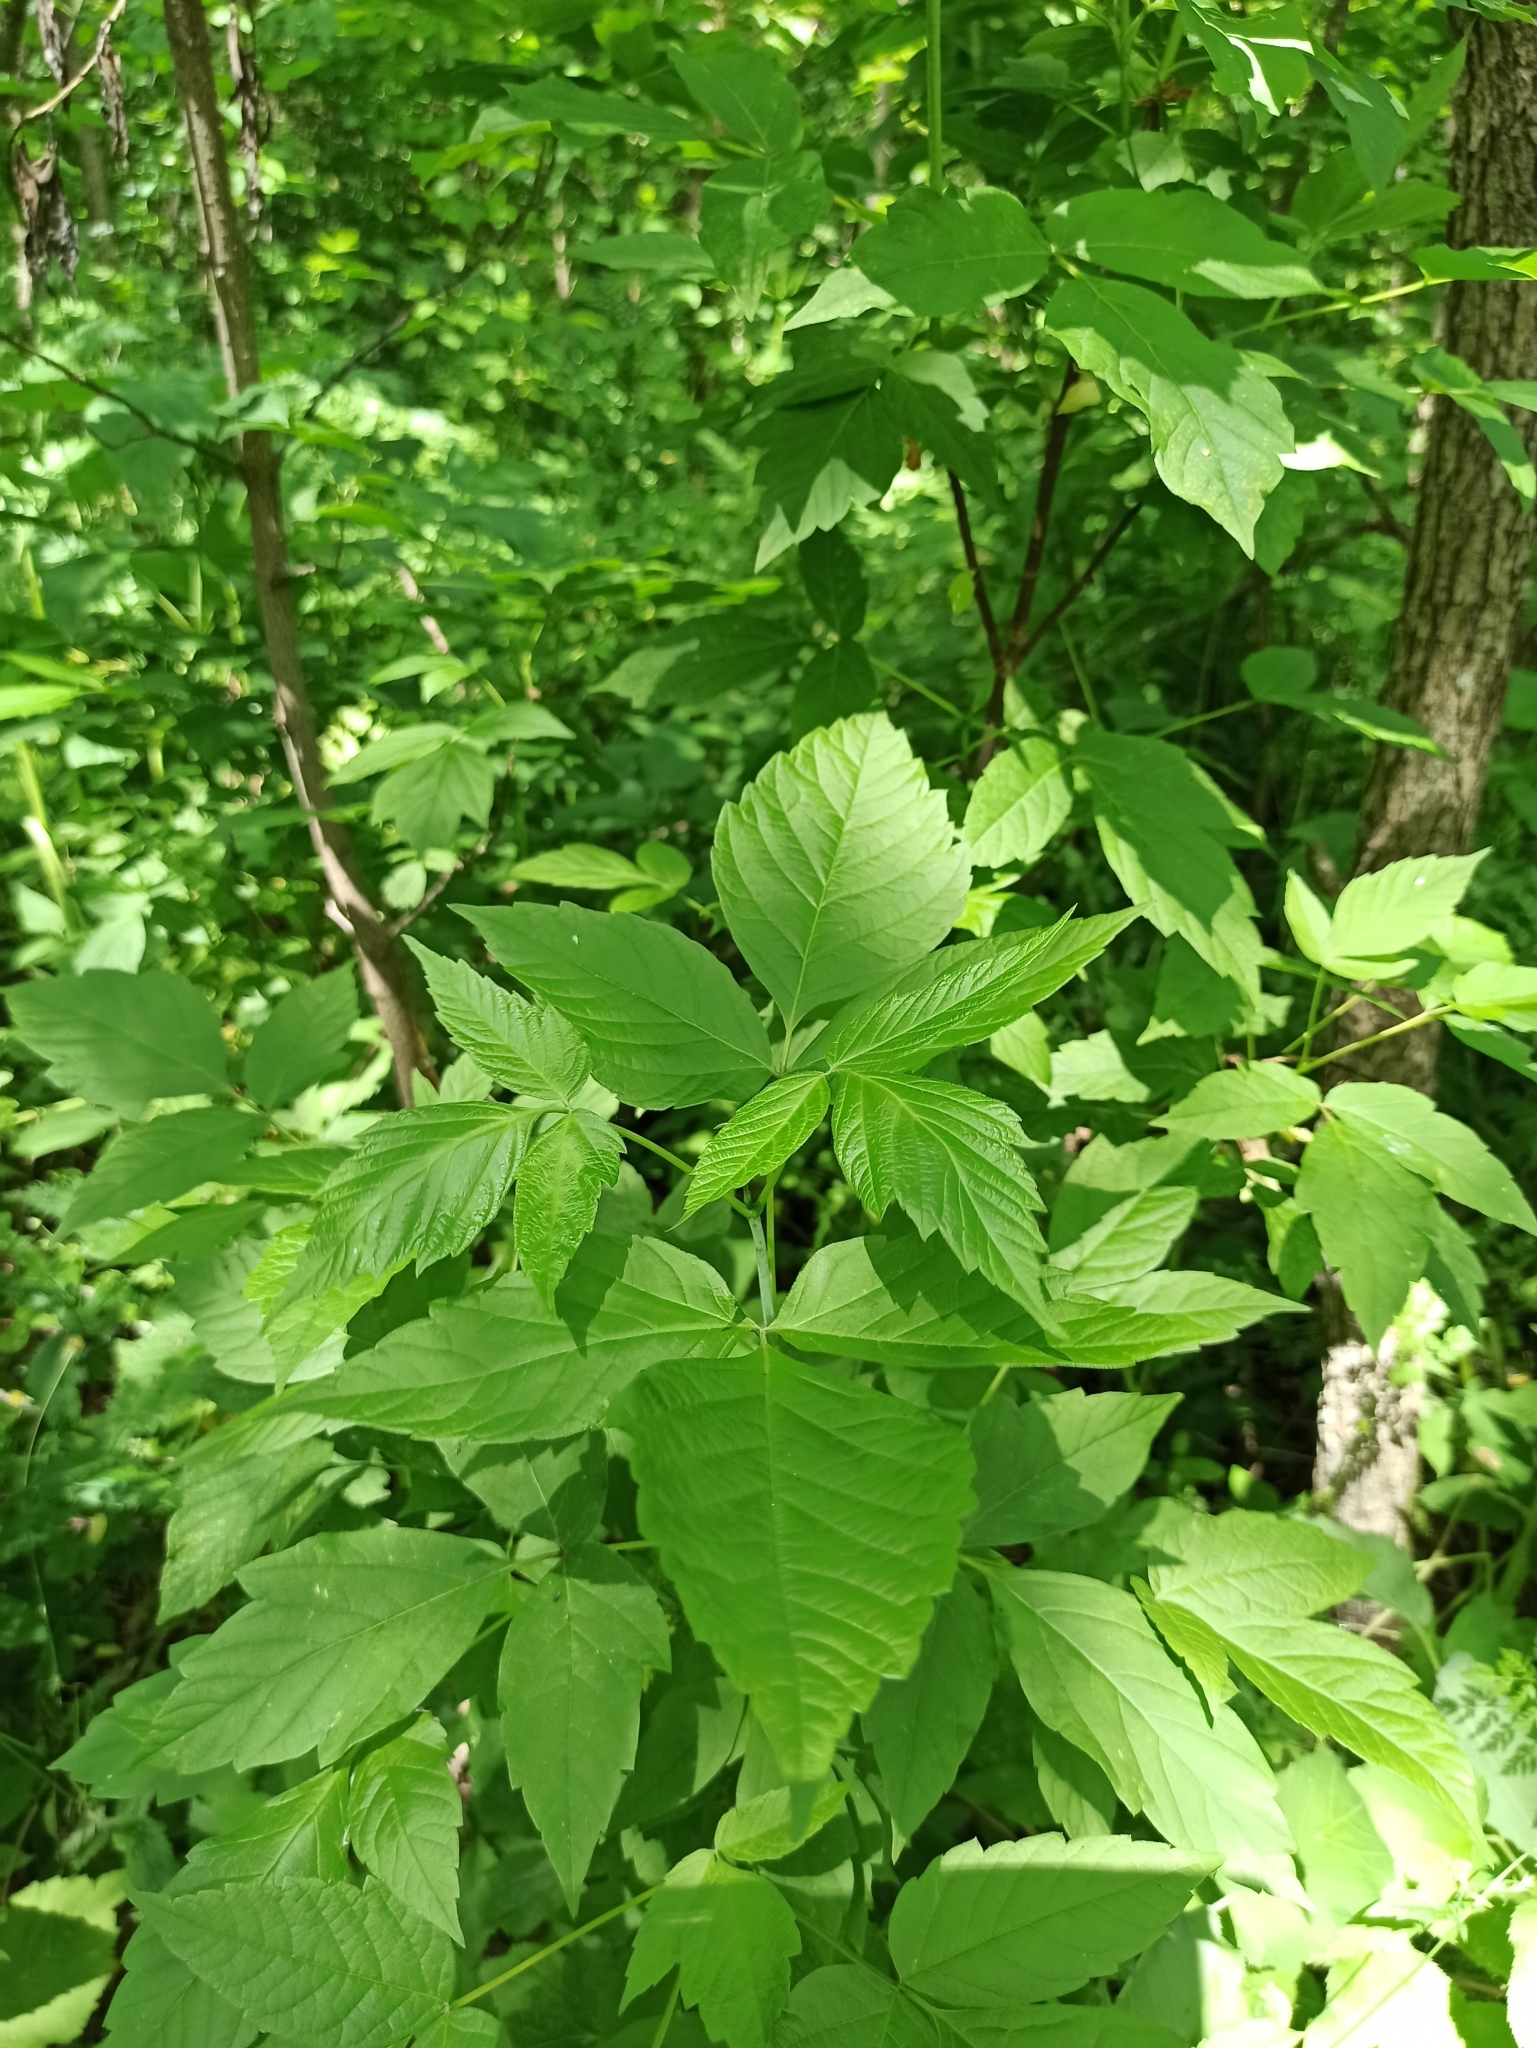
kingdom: Plantae
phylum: Tracheophyta
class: Magnoliopsida
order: Sapindales
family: Sapindaceae
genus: Acer
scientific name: Acer negundo
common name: Ashleaf maple
